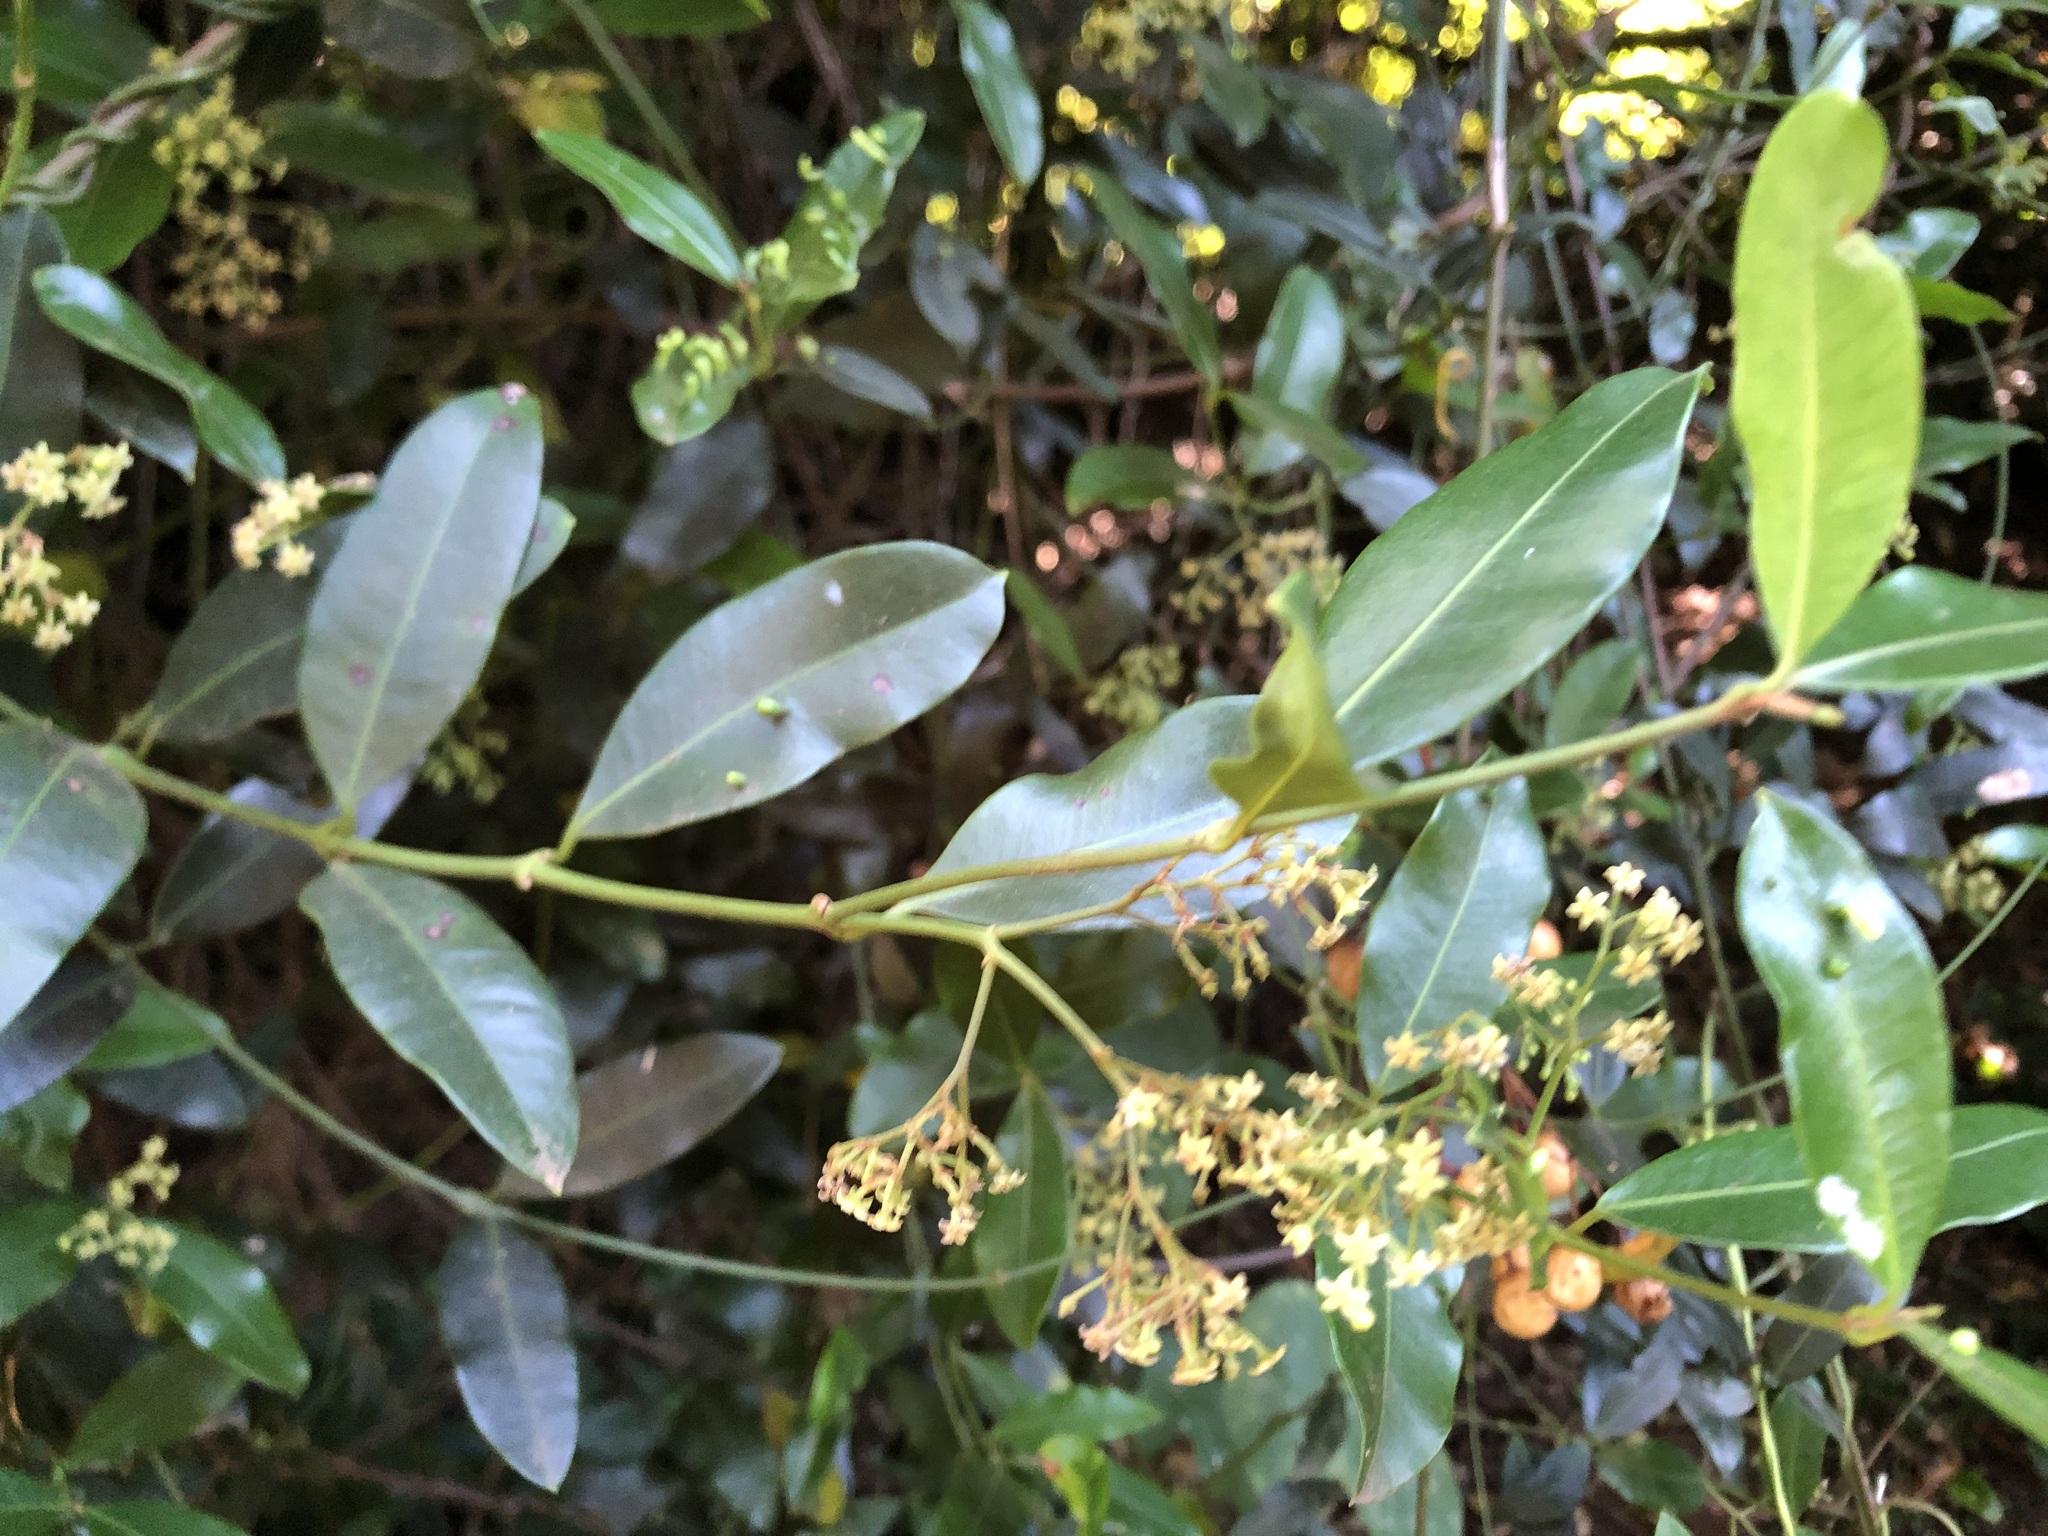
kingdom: Plantae
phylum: Tracheophyta
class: Magnoliopsida
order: Gentianales
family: Apocynaceae
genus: Secamone
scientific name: Secamone alpini
